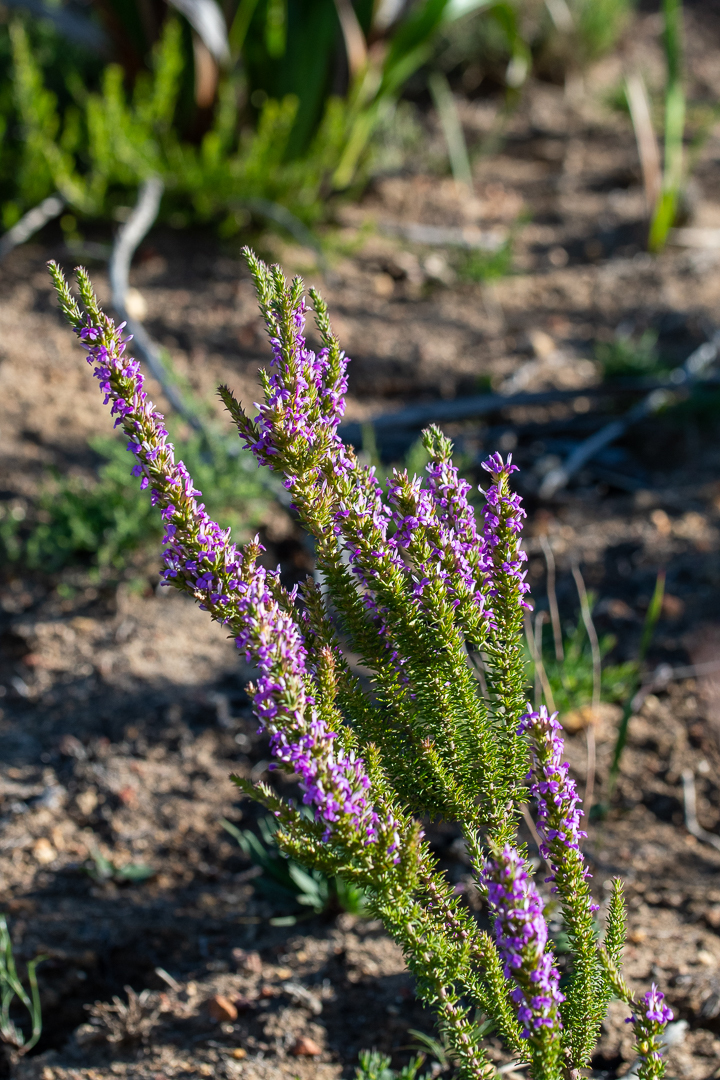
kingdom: Plantae
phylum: Tracheophyta
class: Magnoliopsida
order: Fabales
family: Polygalaceae
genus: Muraltia
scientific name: Muraltia heisteria
